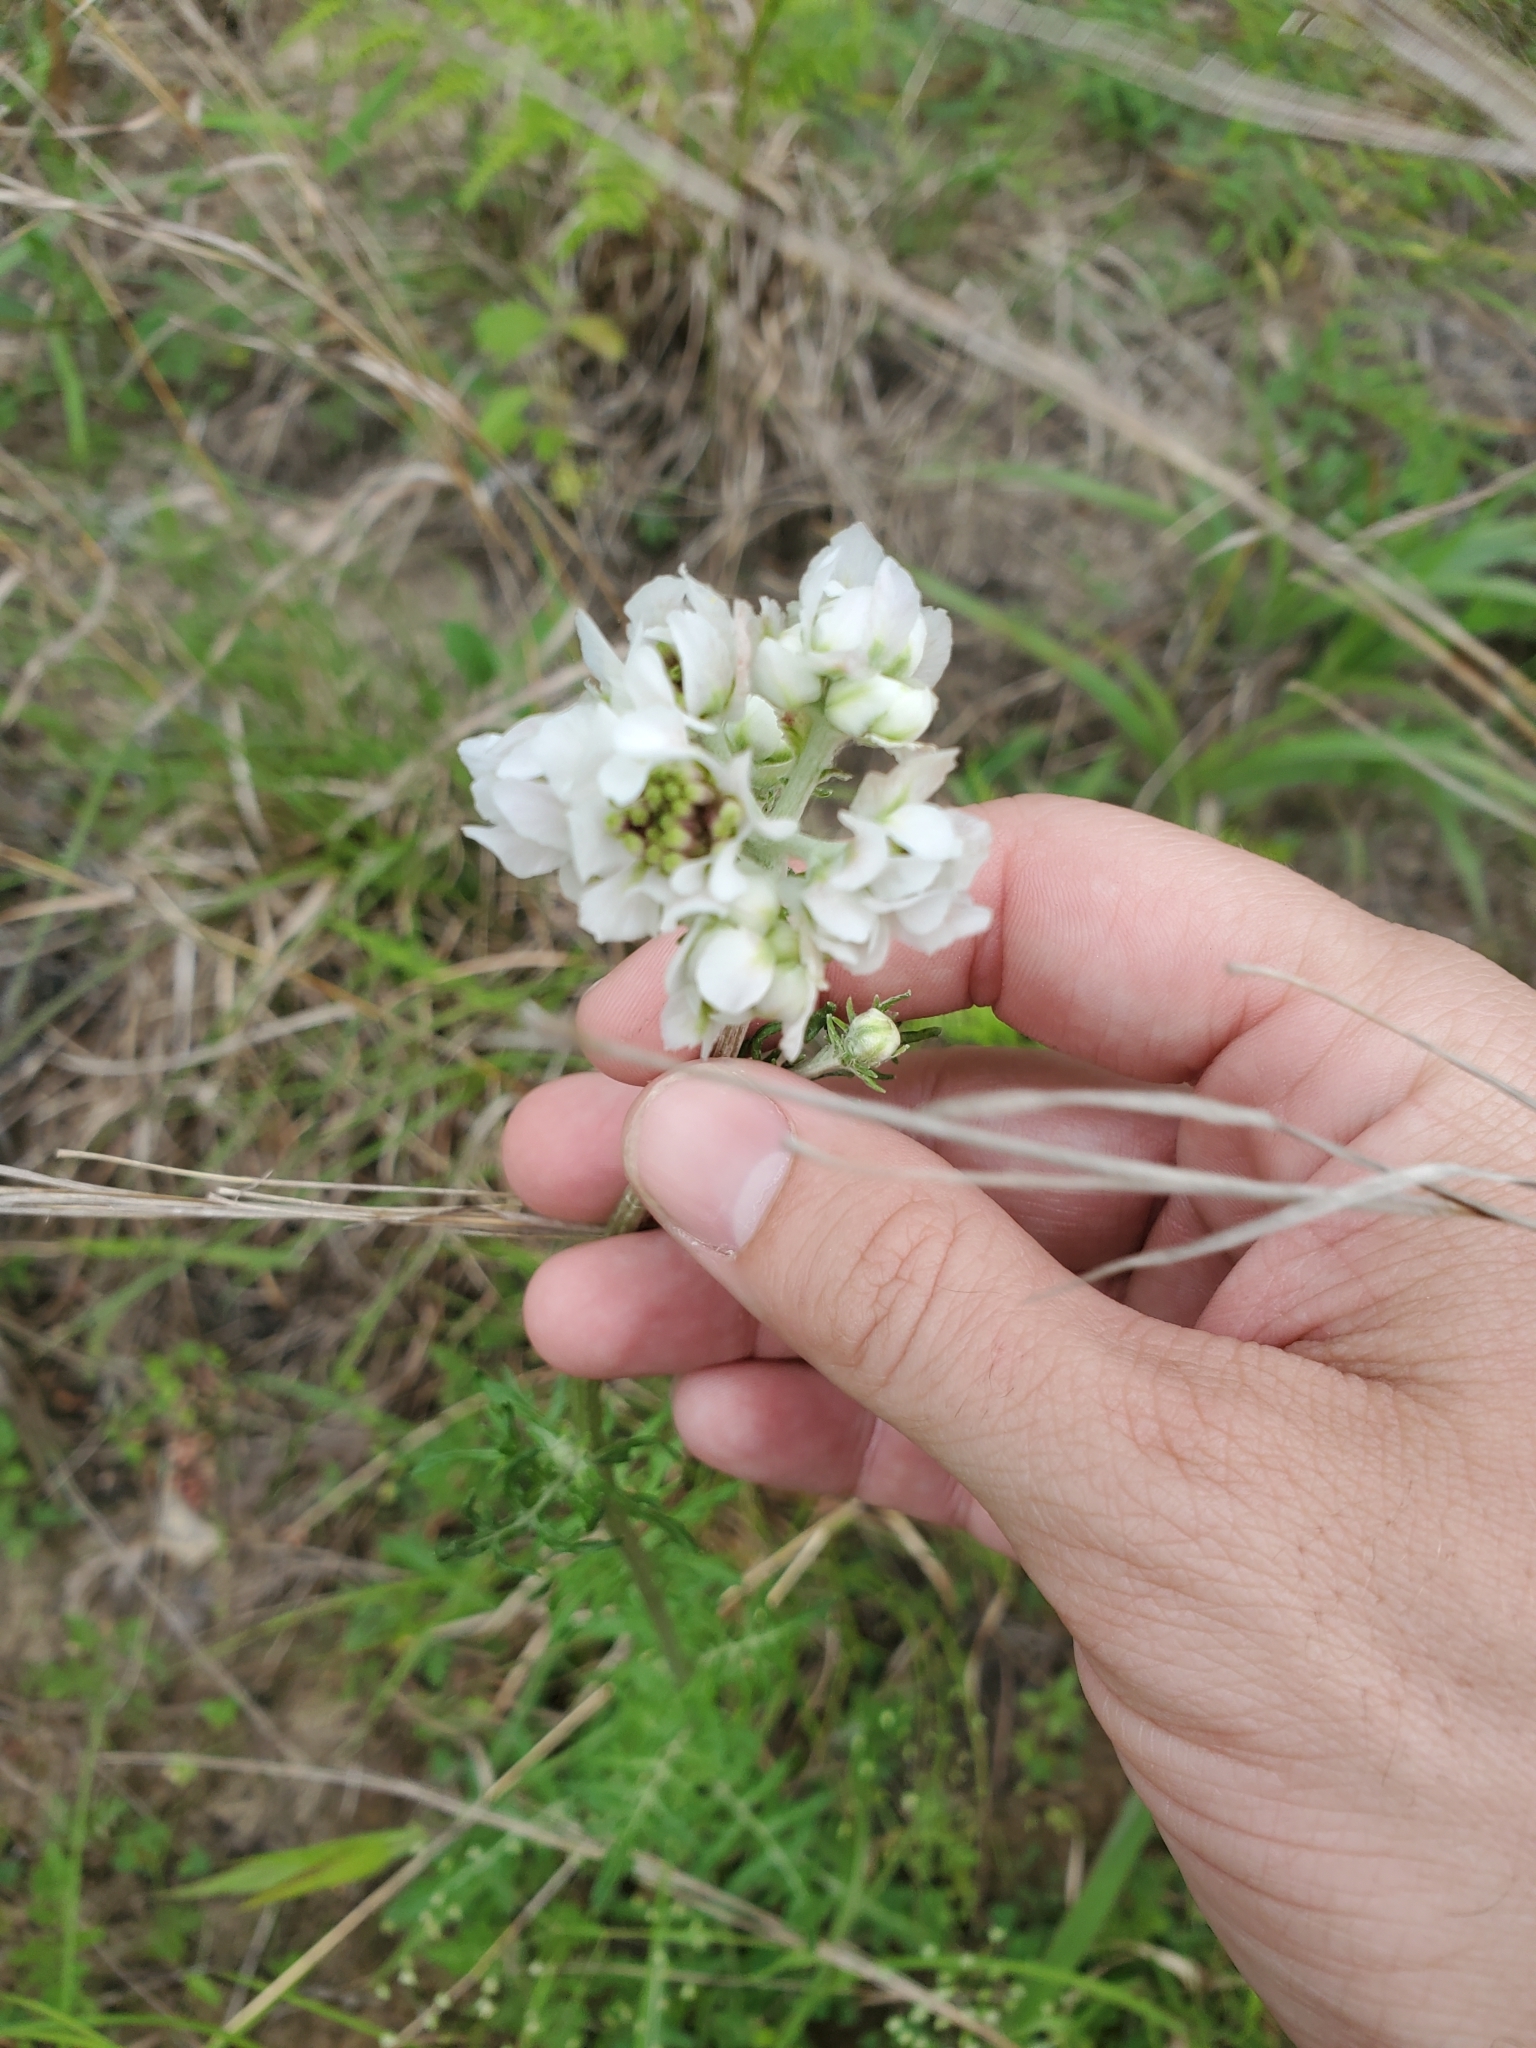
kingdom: Plantae
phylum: Tracheophyta
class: Magnoliopsida
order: Asterales
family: Asteraceae
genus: Hymenopappus
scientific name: Hymenopappus artemisiifolius
